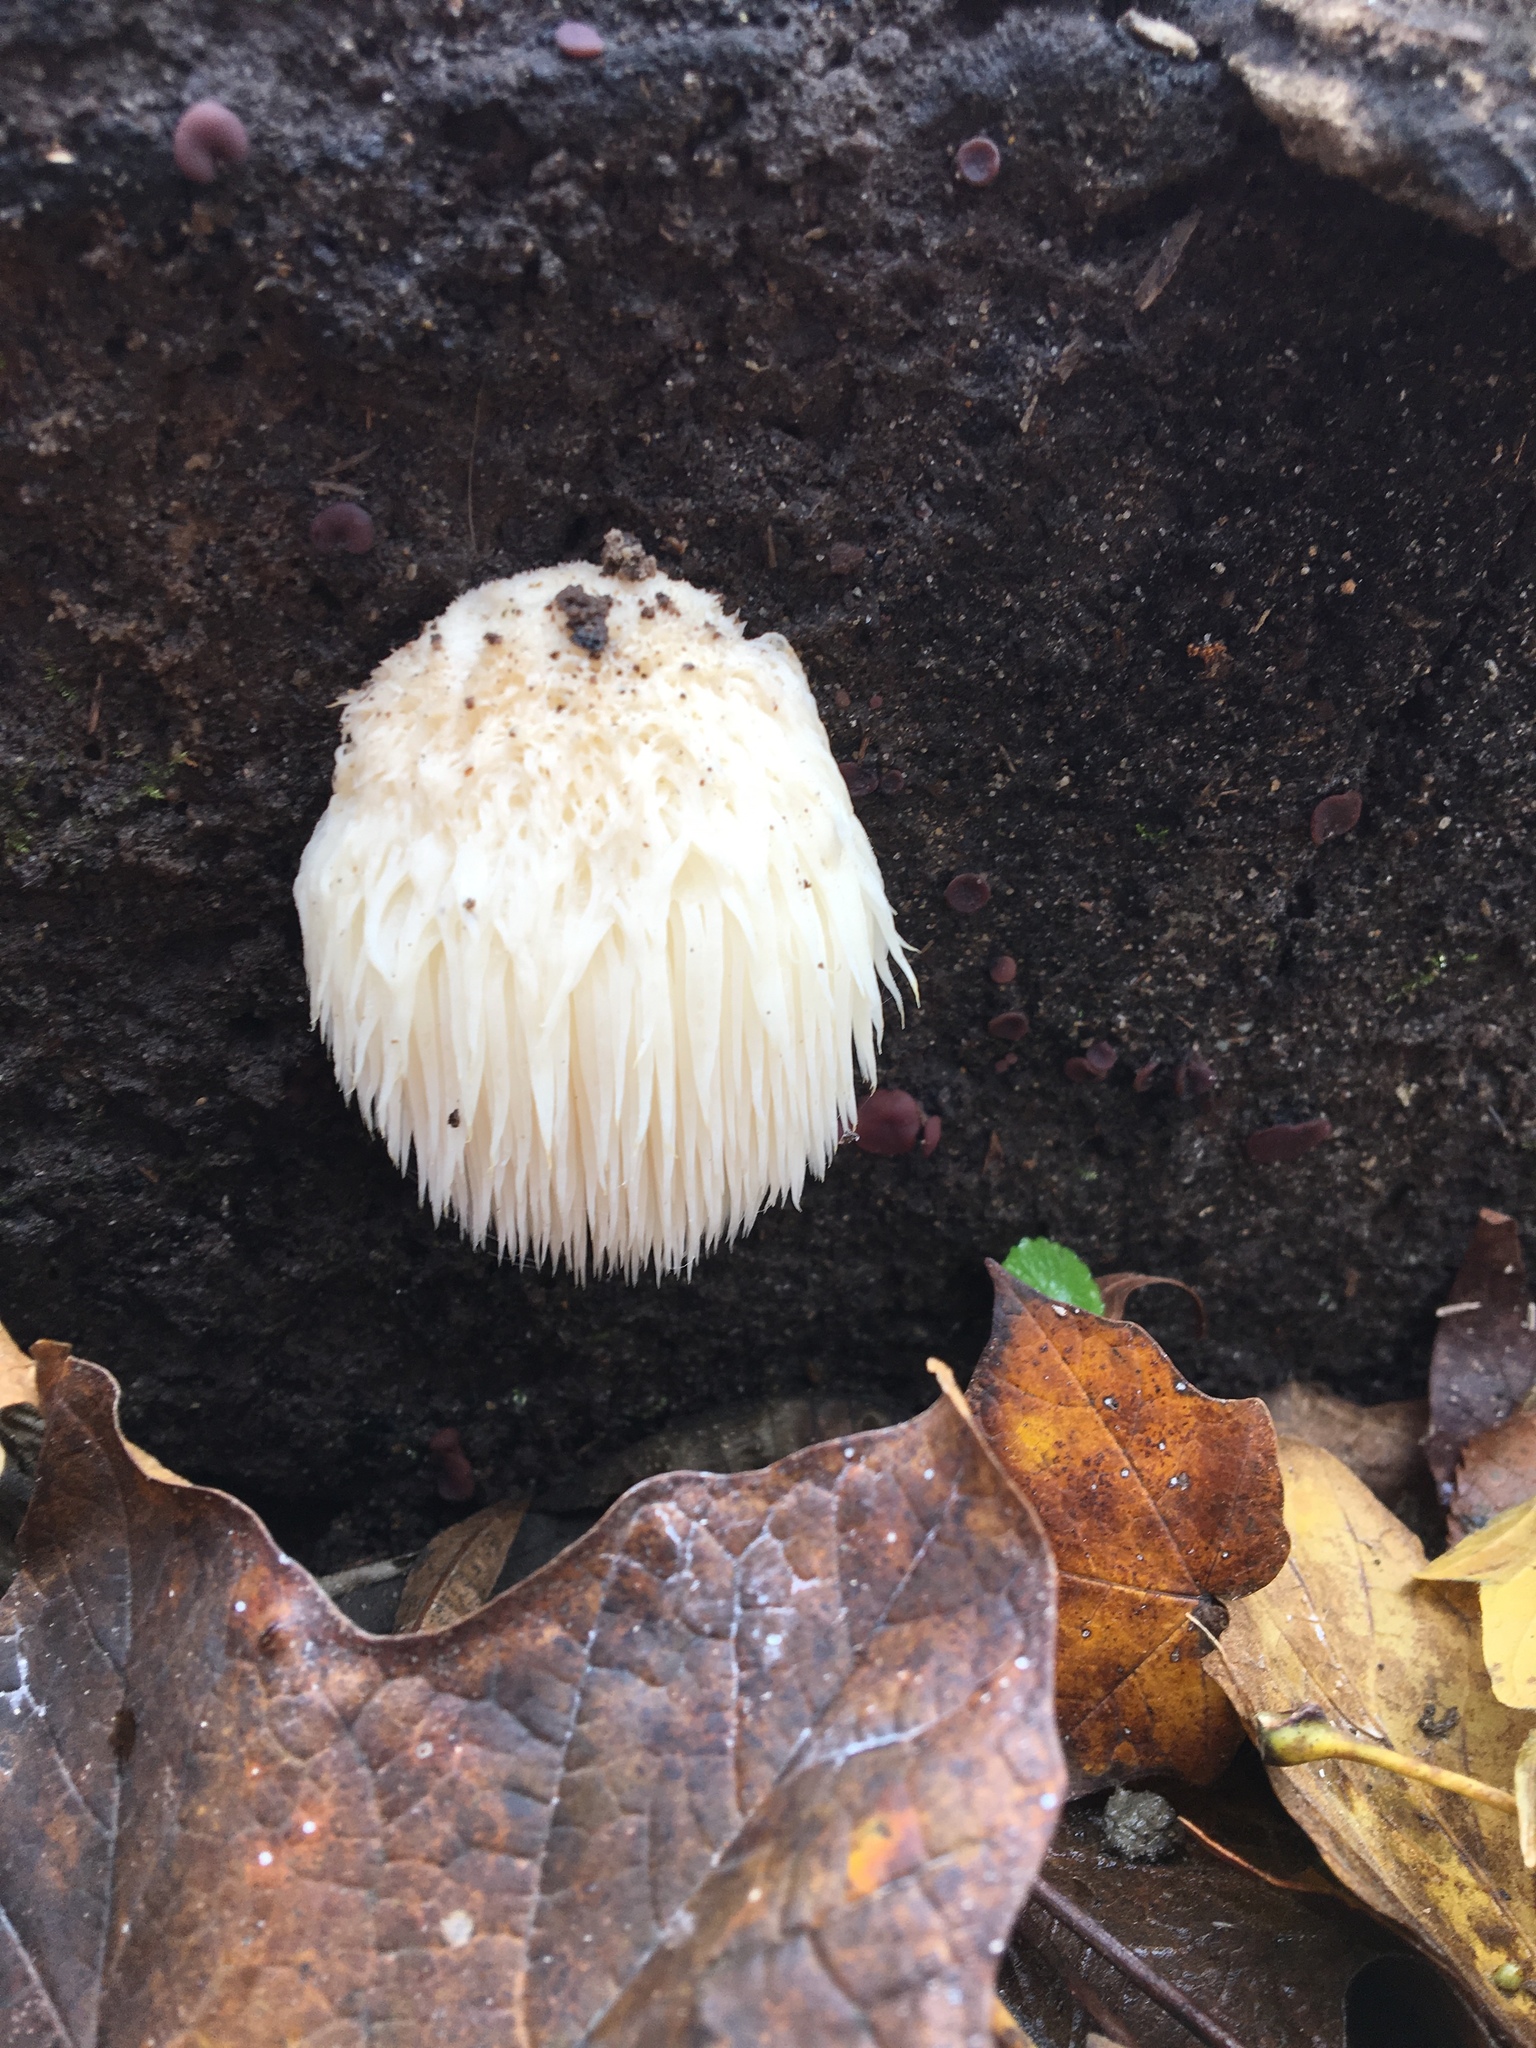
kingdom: Fungi
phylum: Basidiomycota
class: Agaricomycetes
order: Russulales
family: Hericiaceae
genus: Hericium
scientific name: Hericium erinaceus
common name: Bearded tooth
